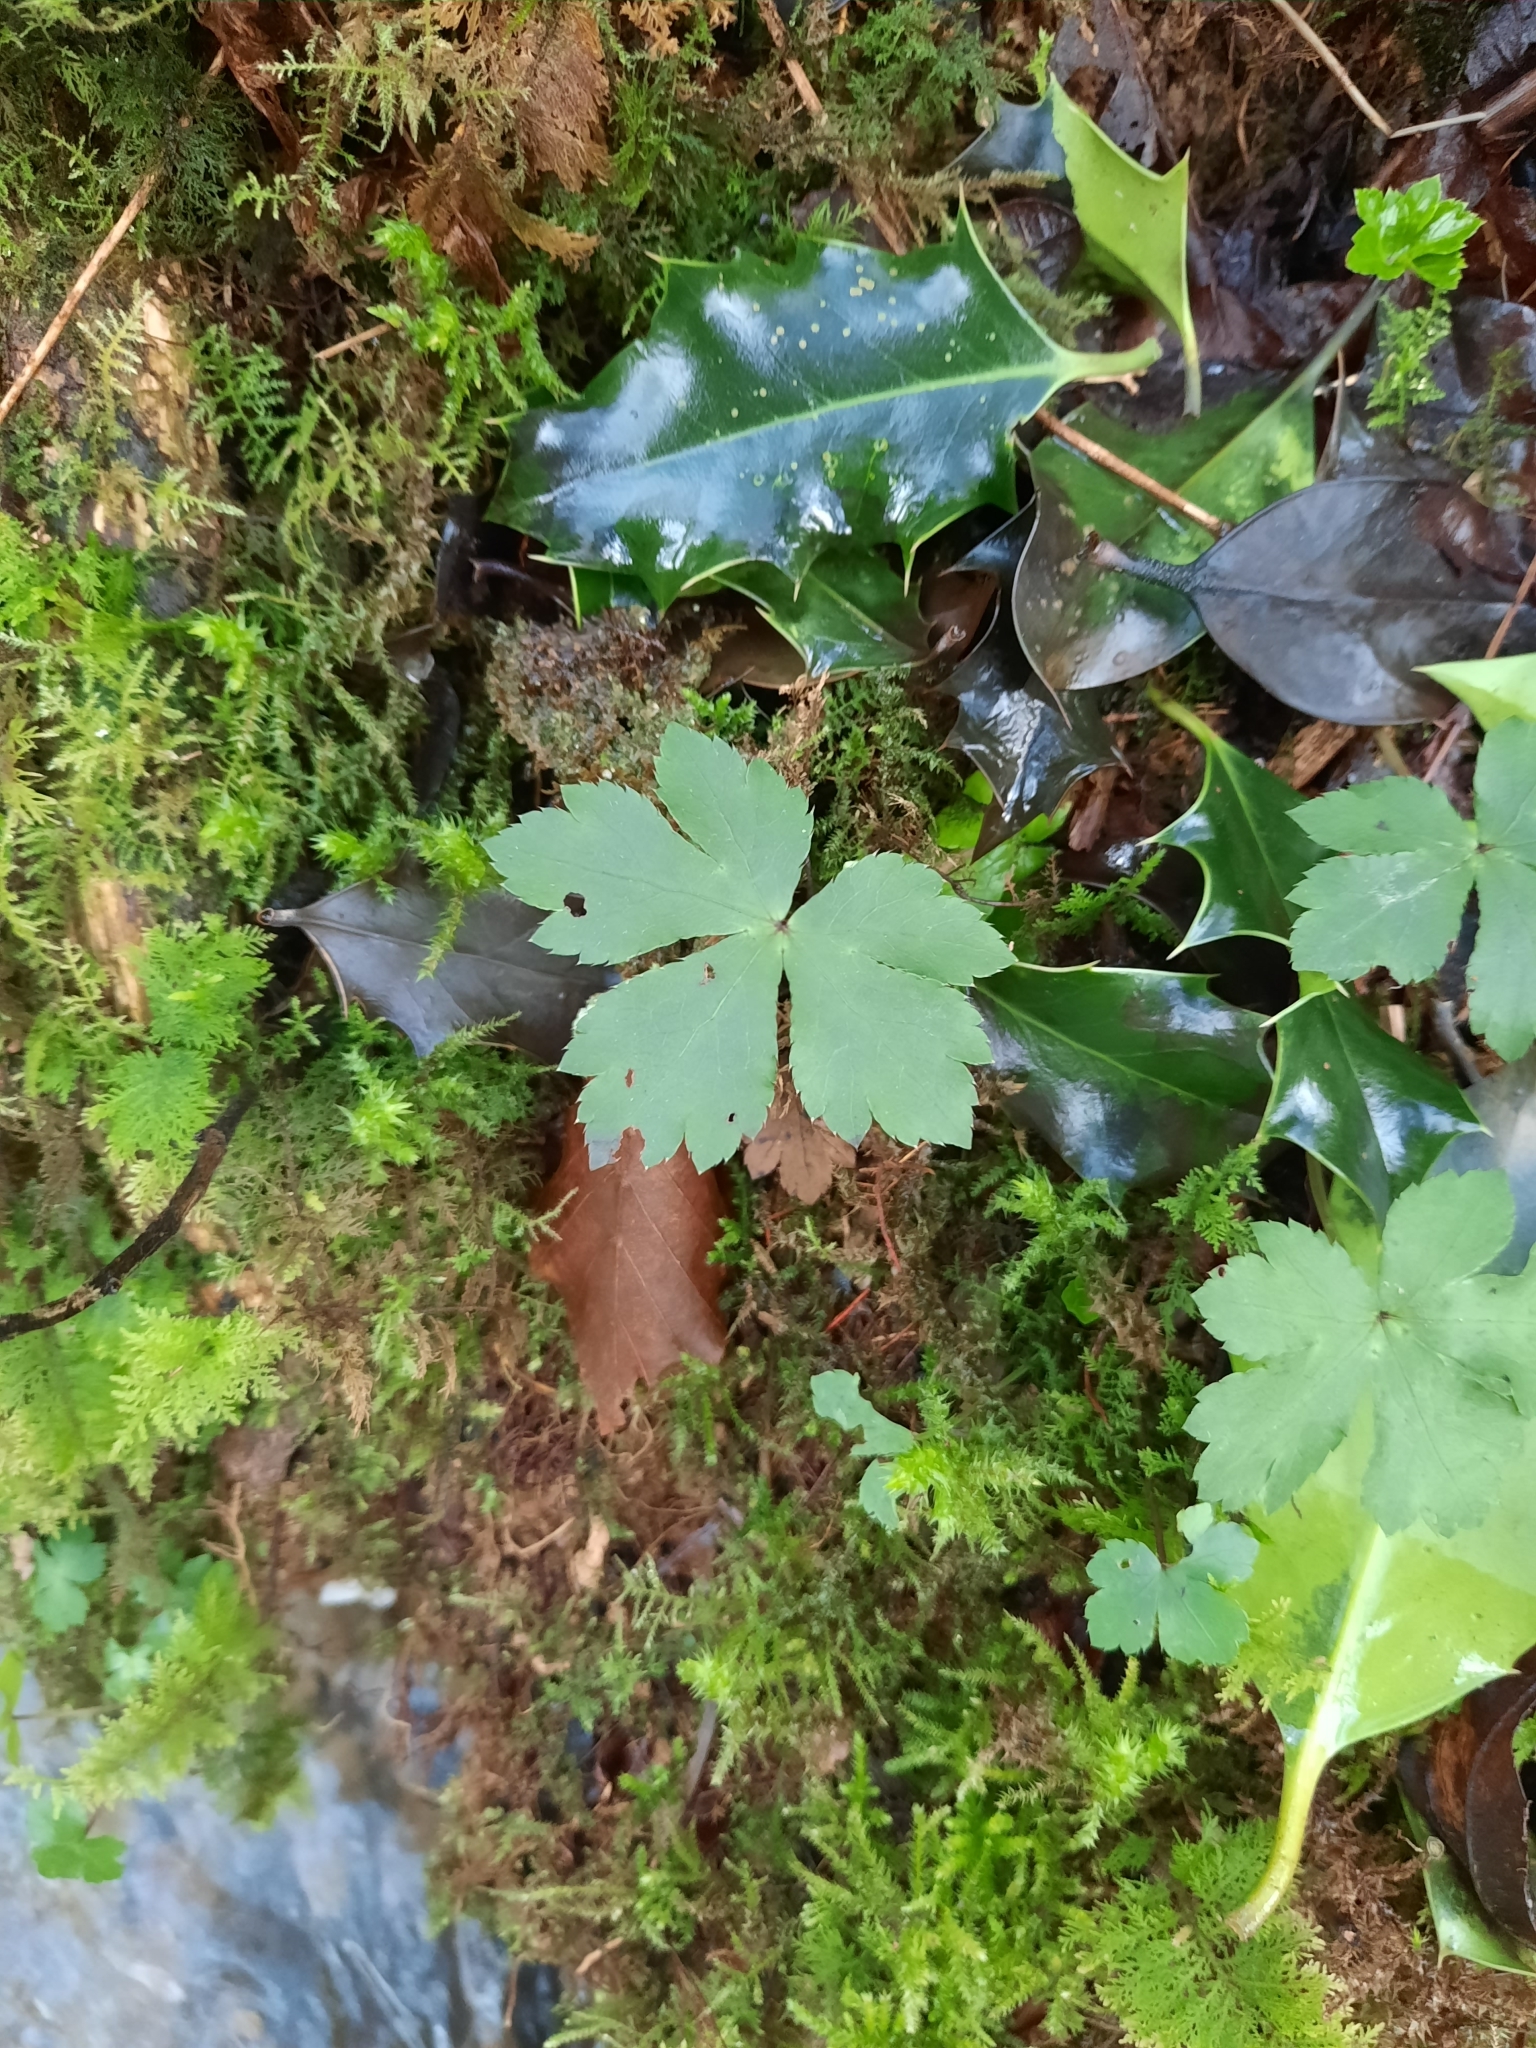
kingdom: Plantae
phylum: Tracheophyta
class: Magnoliopsida
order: Apiales
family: Apiaceae
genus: Sanicula
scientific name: Sanicula europaea
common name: Sanicle
